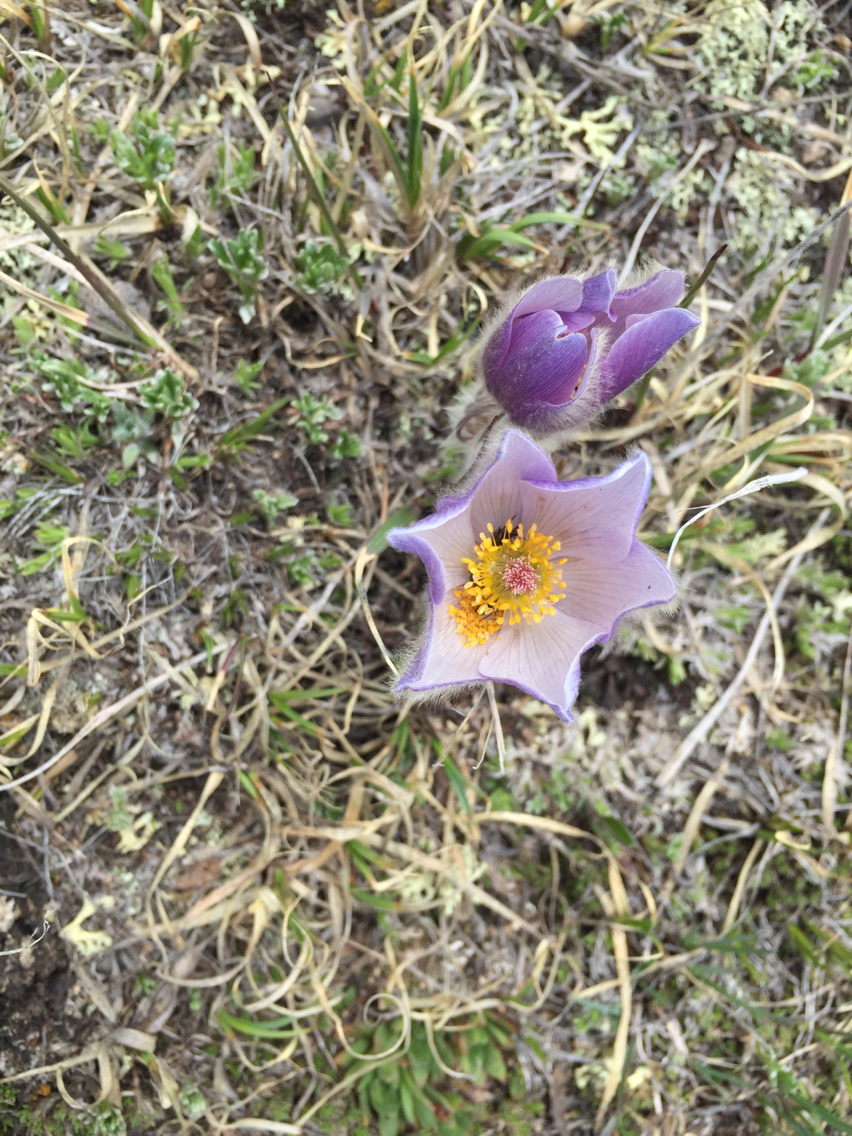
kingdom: Plantae
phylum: Tracheophyta
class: Magnoliopsida
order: Ranunculales
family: Ranunculaceae
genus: Pulsatilla
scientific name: Pulsatilla nuttalliana
